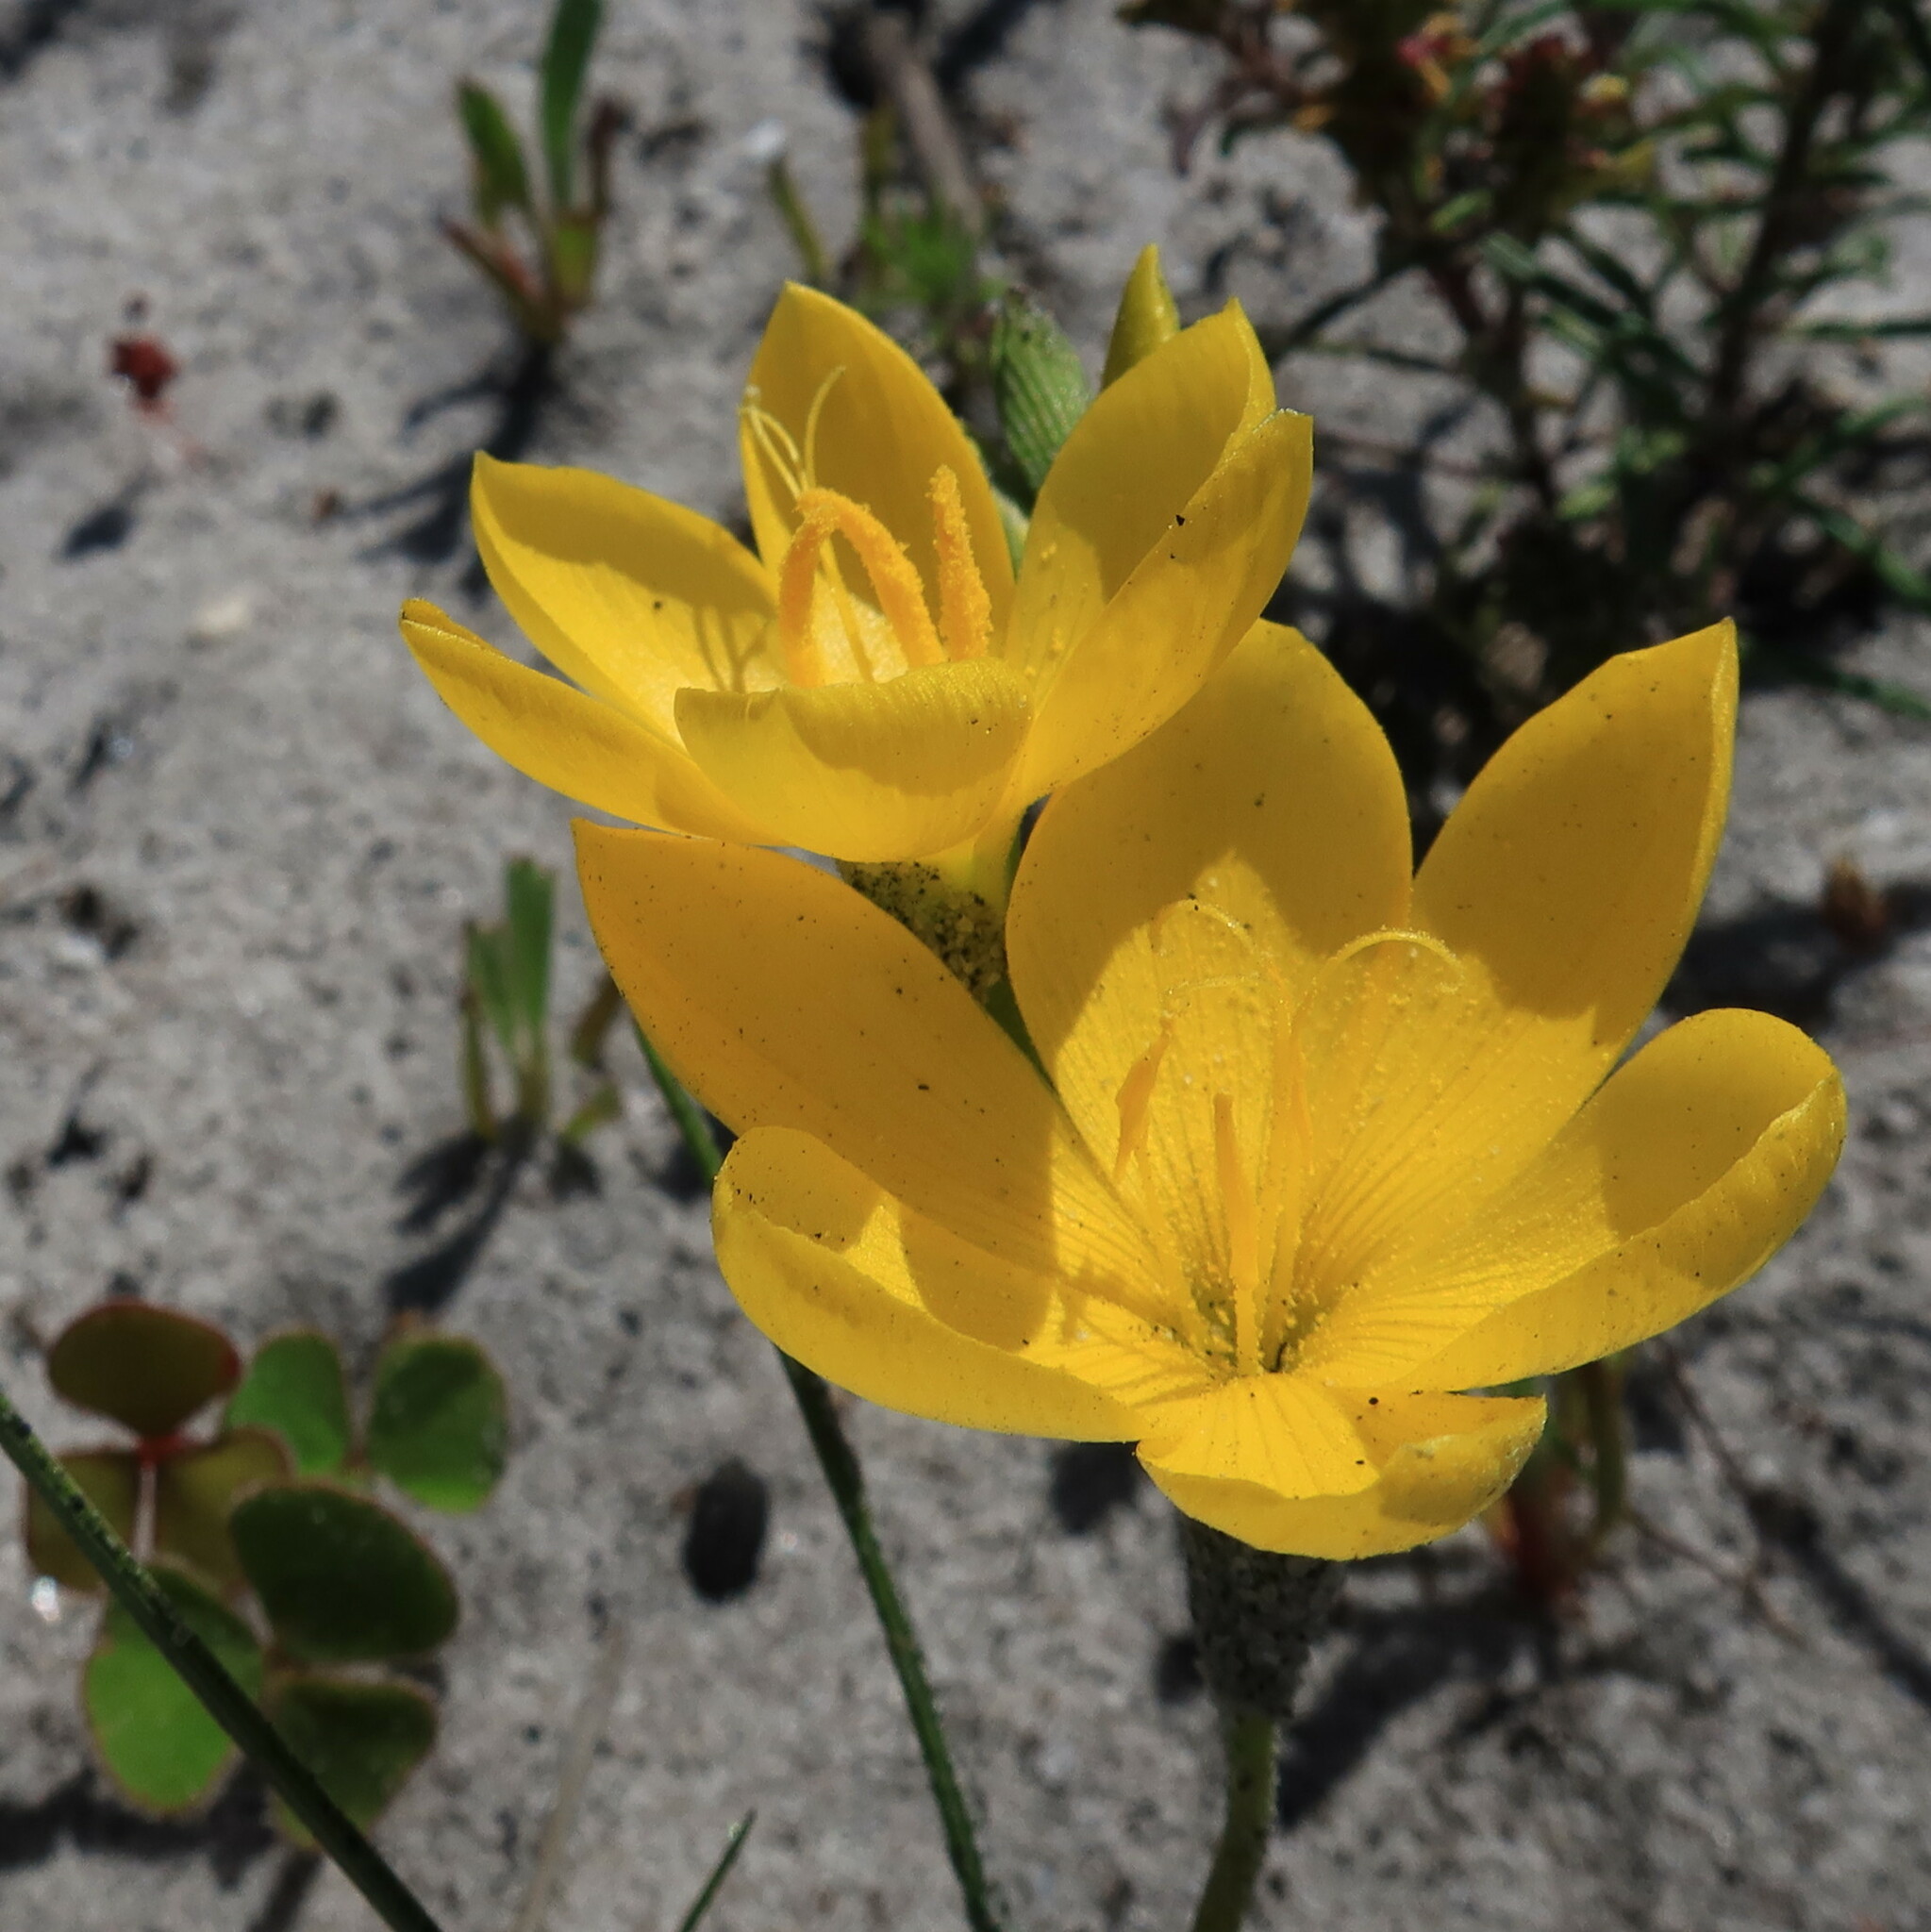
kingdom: Plantae
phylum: Tracheophyta
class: Liliopsida
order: Asparagales
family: Iridaceae
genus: Geissorhiza
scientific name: Geissorhiza humilis
